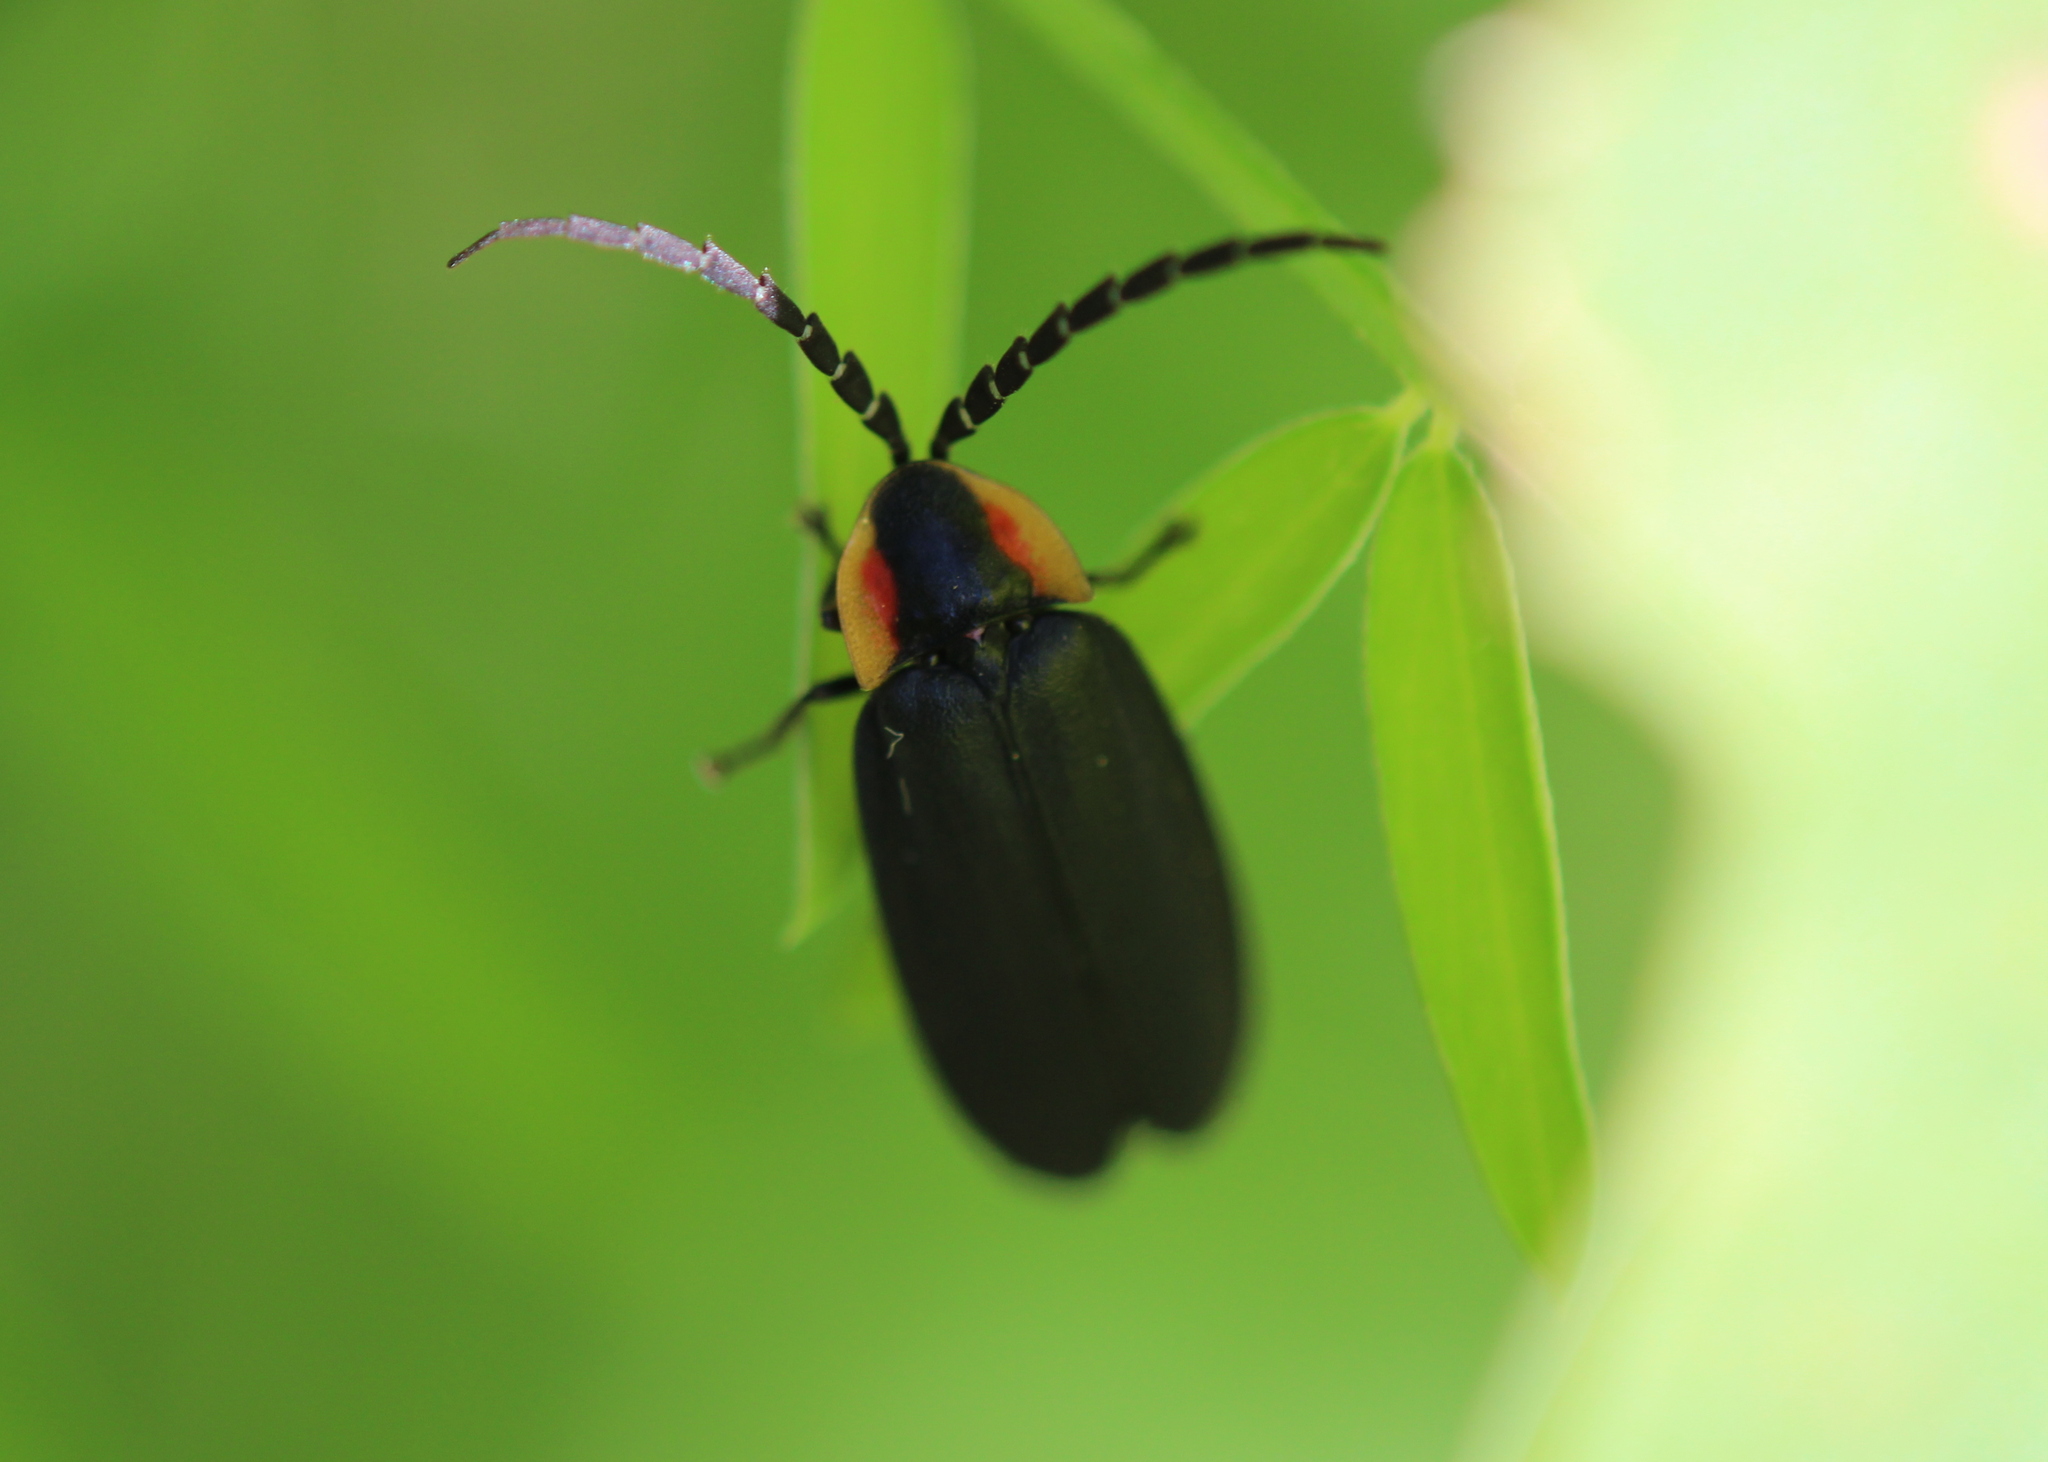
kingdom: Animalia
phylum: Arthropoda
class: Insecta
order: Coleoptera
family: Lampyridae
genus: Lucidota
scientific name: Lucidota atra
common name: Black firefly
